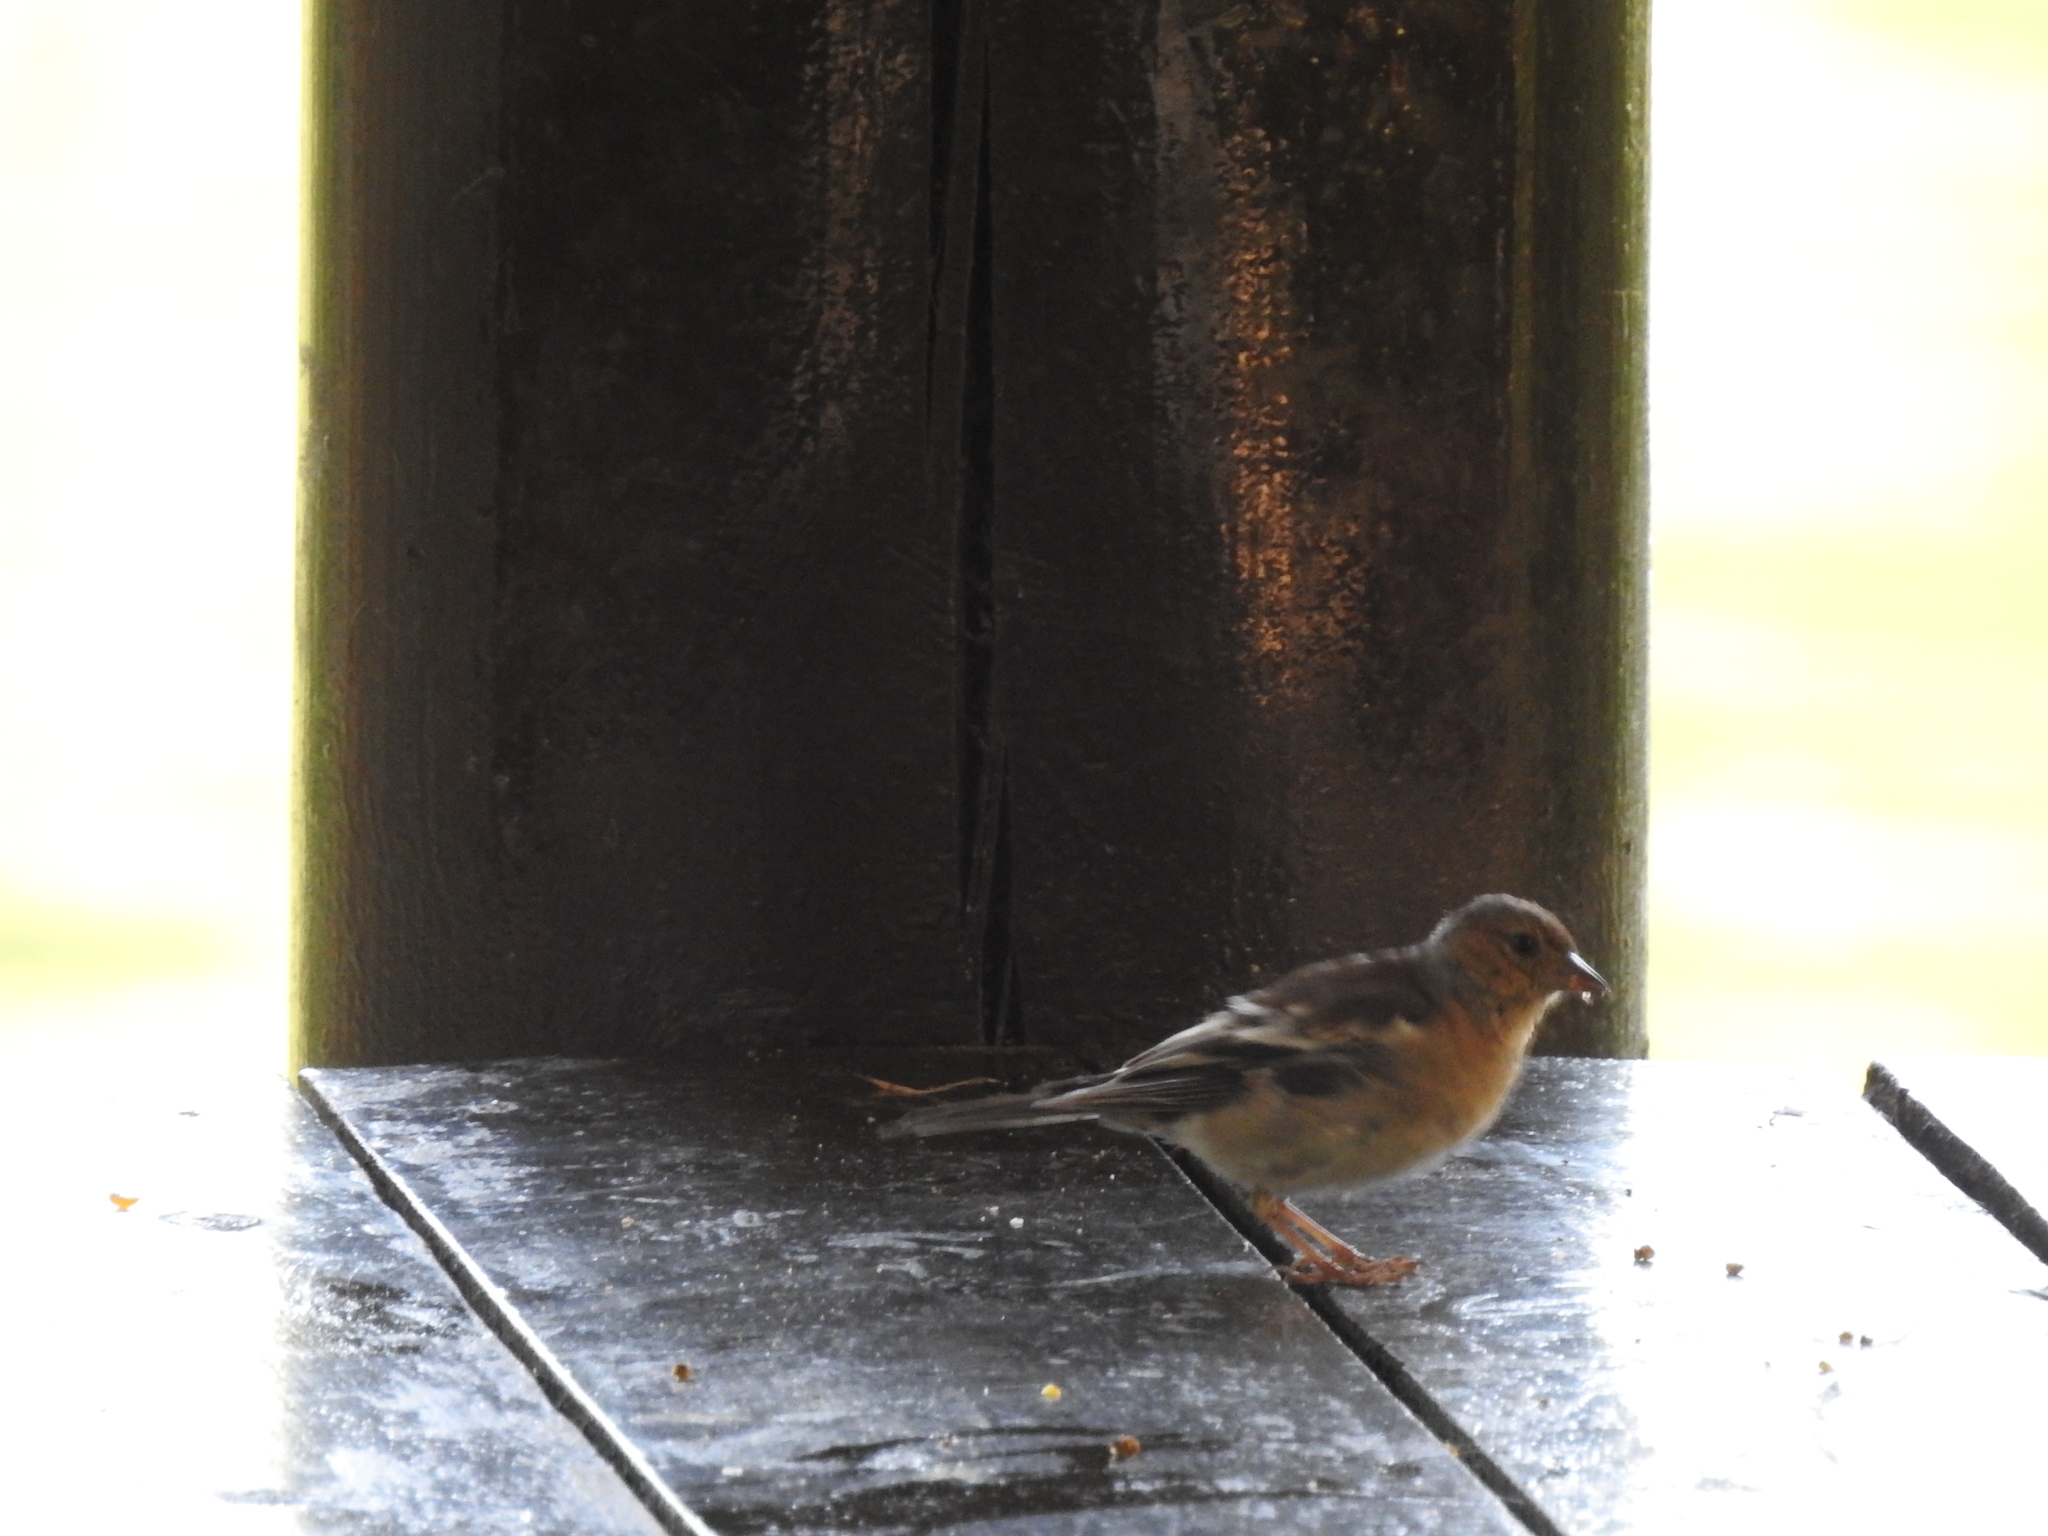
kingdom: Animalia
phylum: Chordata
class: Aves
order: Passeriformes
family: Fringillidae
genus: Fringilla
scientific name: Fringilla montifringilla
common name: Brambling
